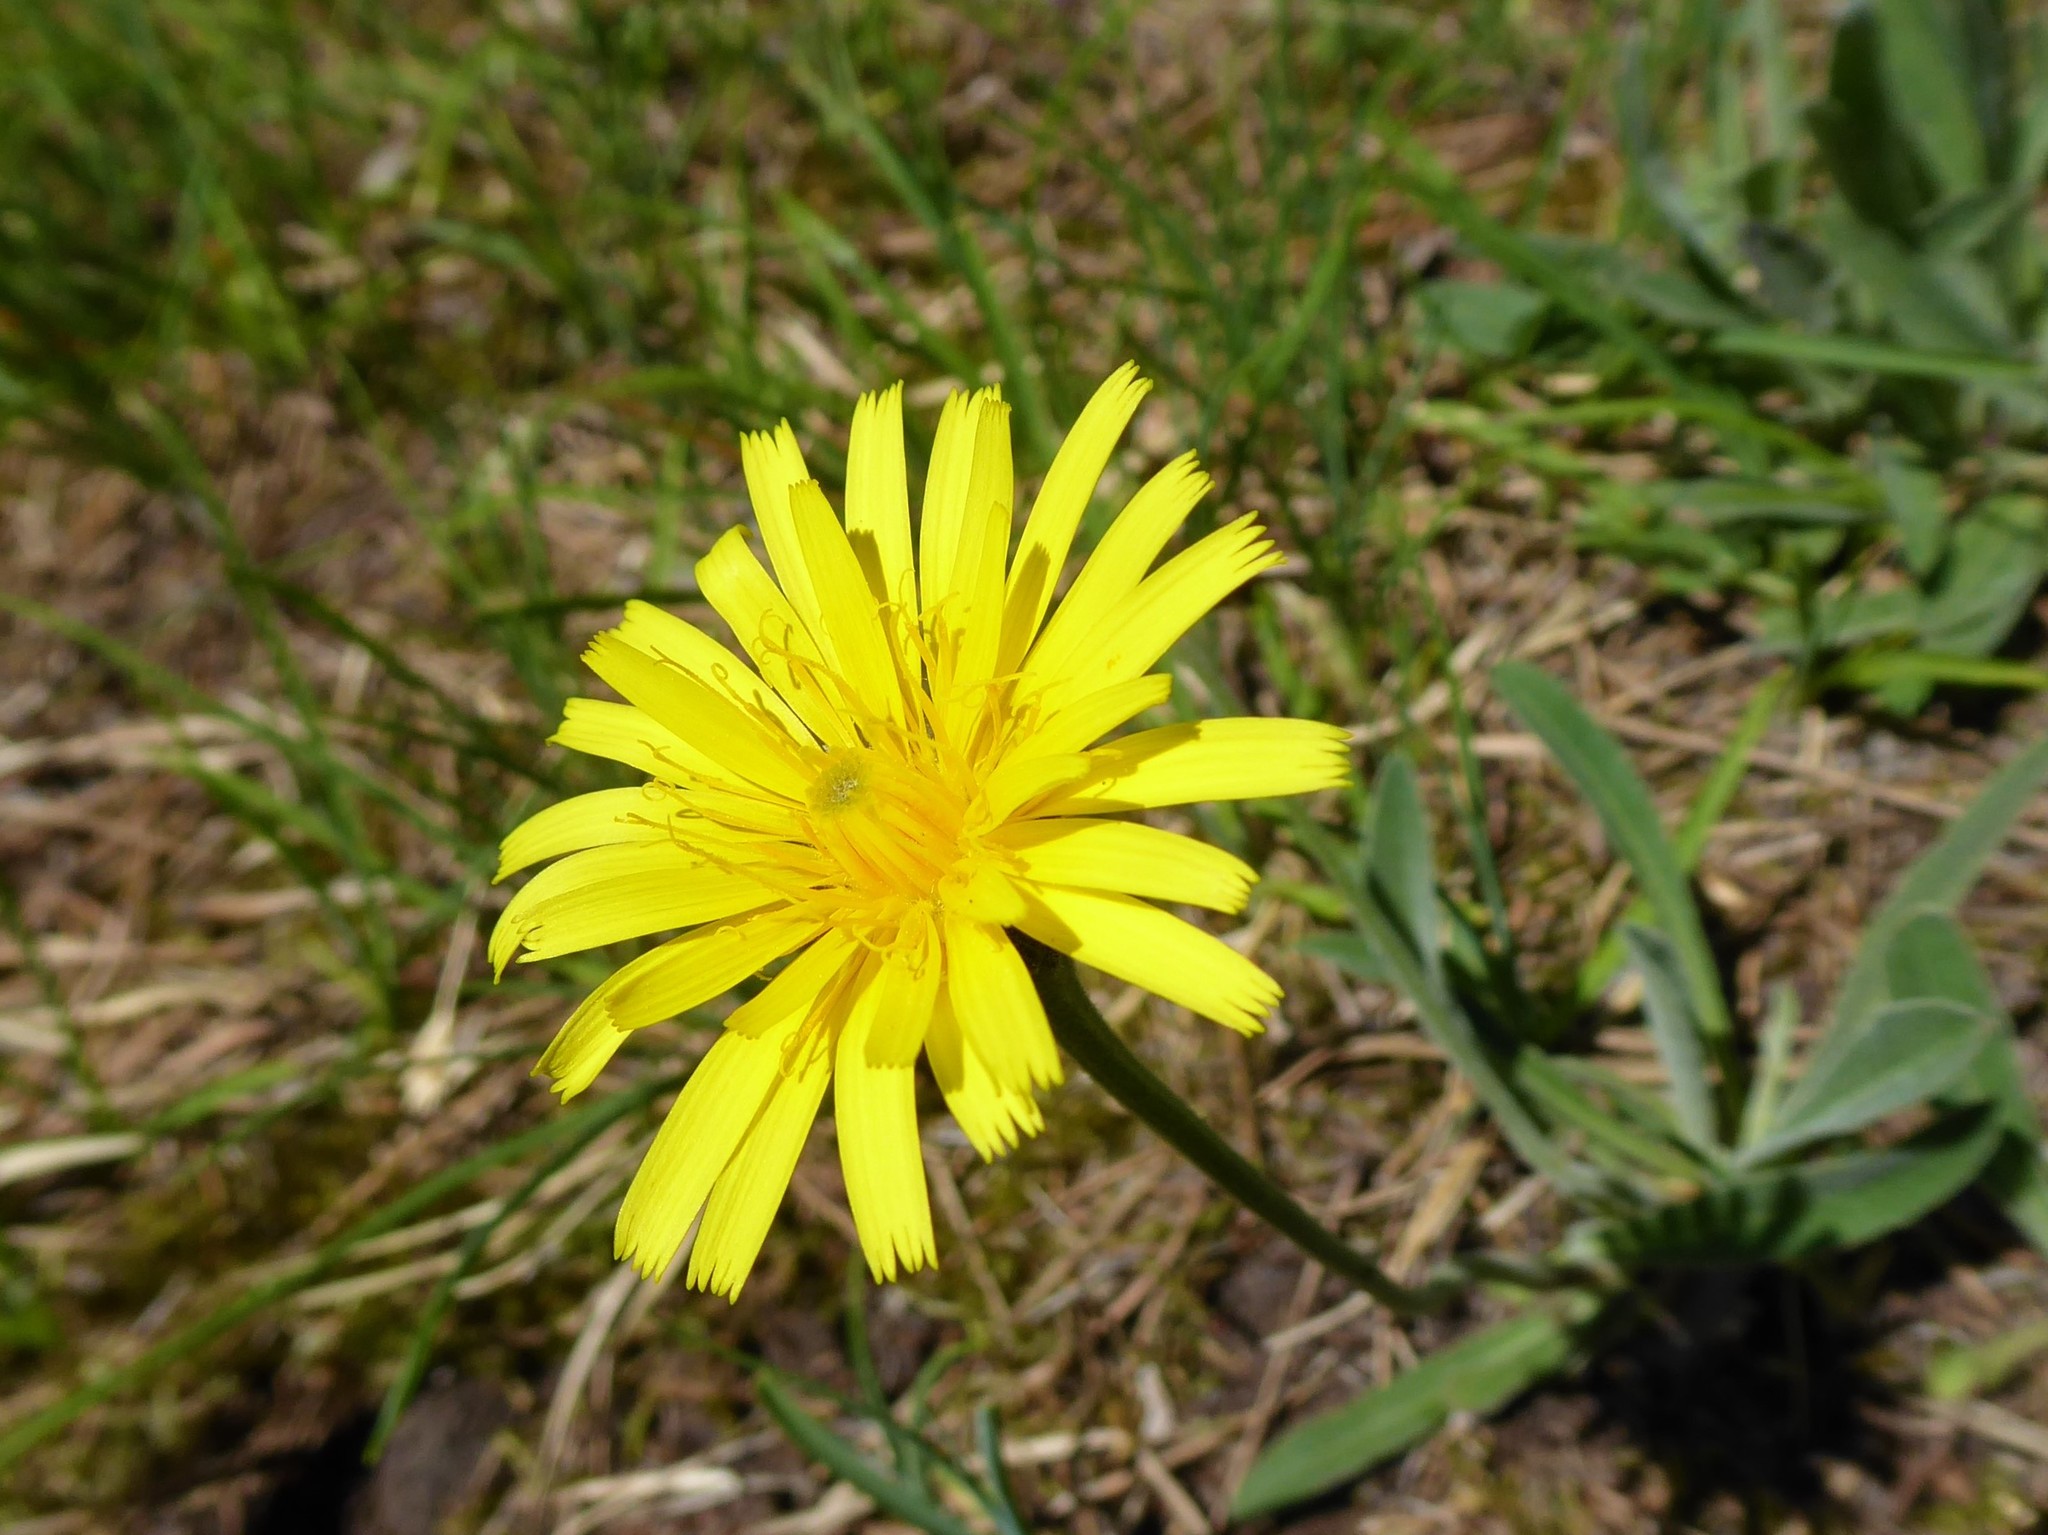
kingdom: Plantae
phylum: Tracheophyta
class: Magnoliopsida
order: Asterales
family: Asteraceae
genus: Leontodon
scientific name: Leontodon incanus
